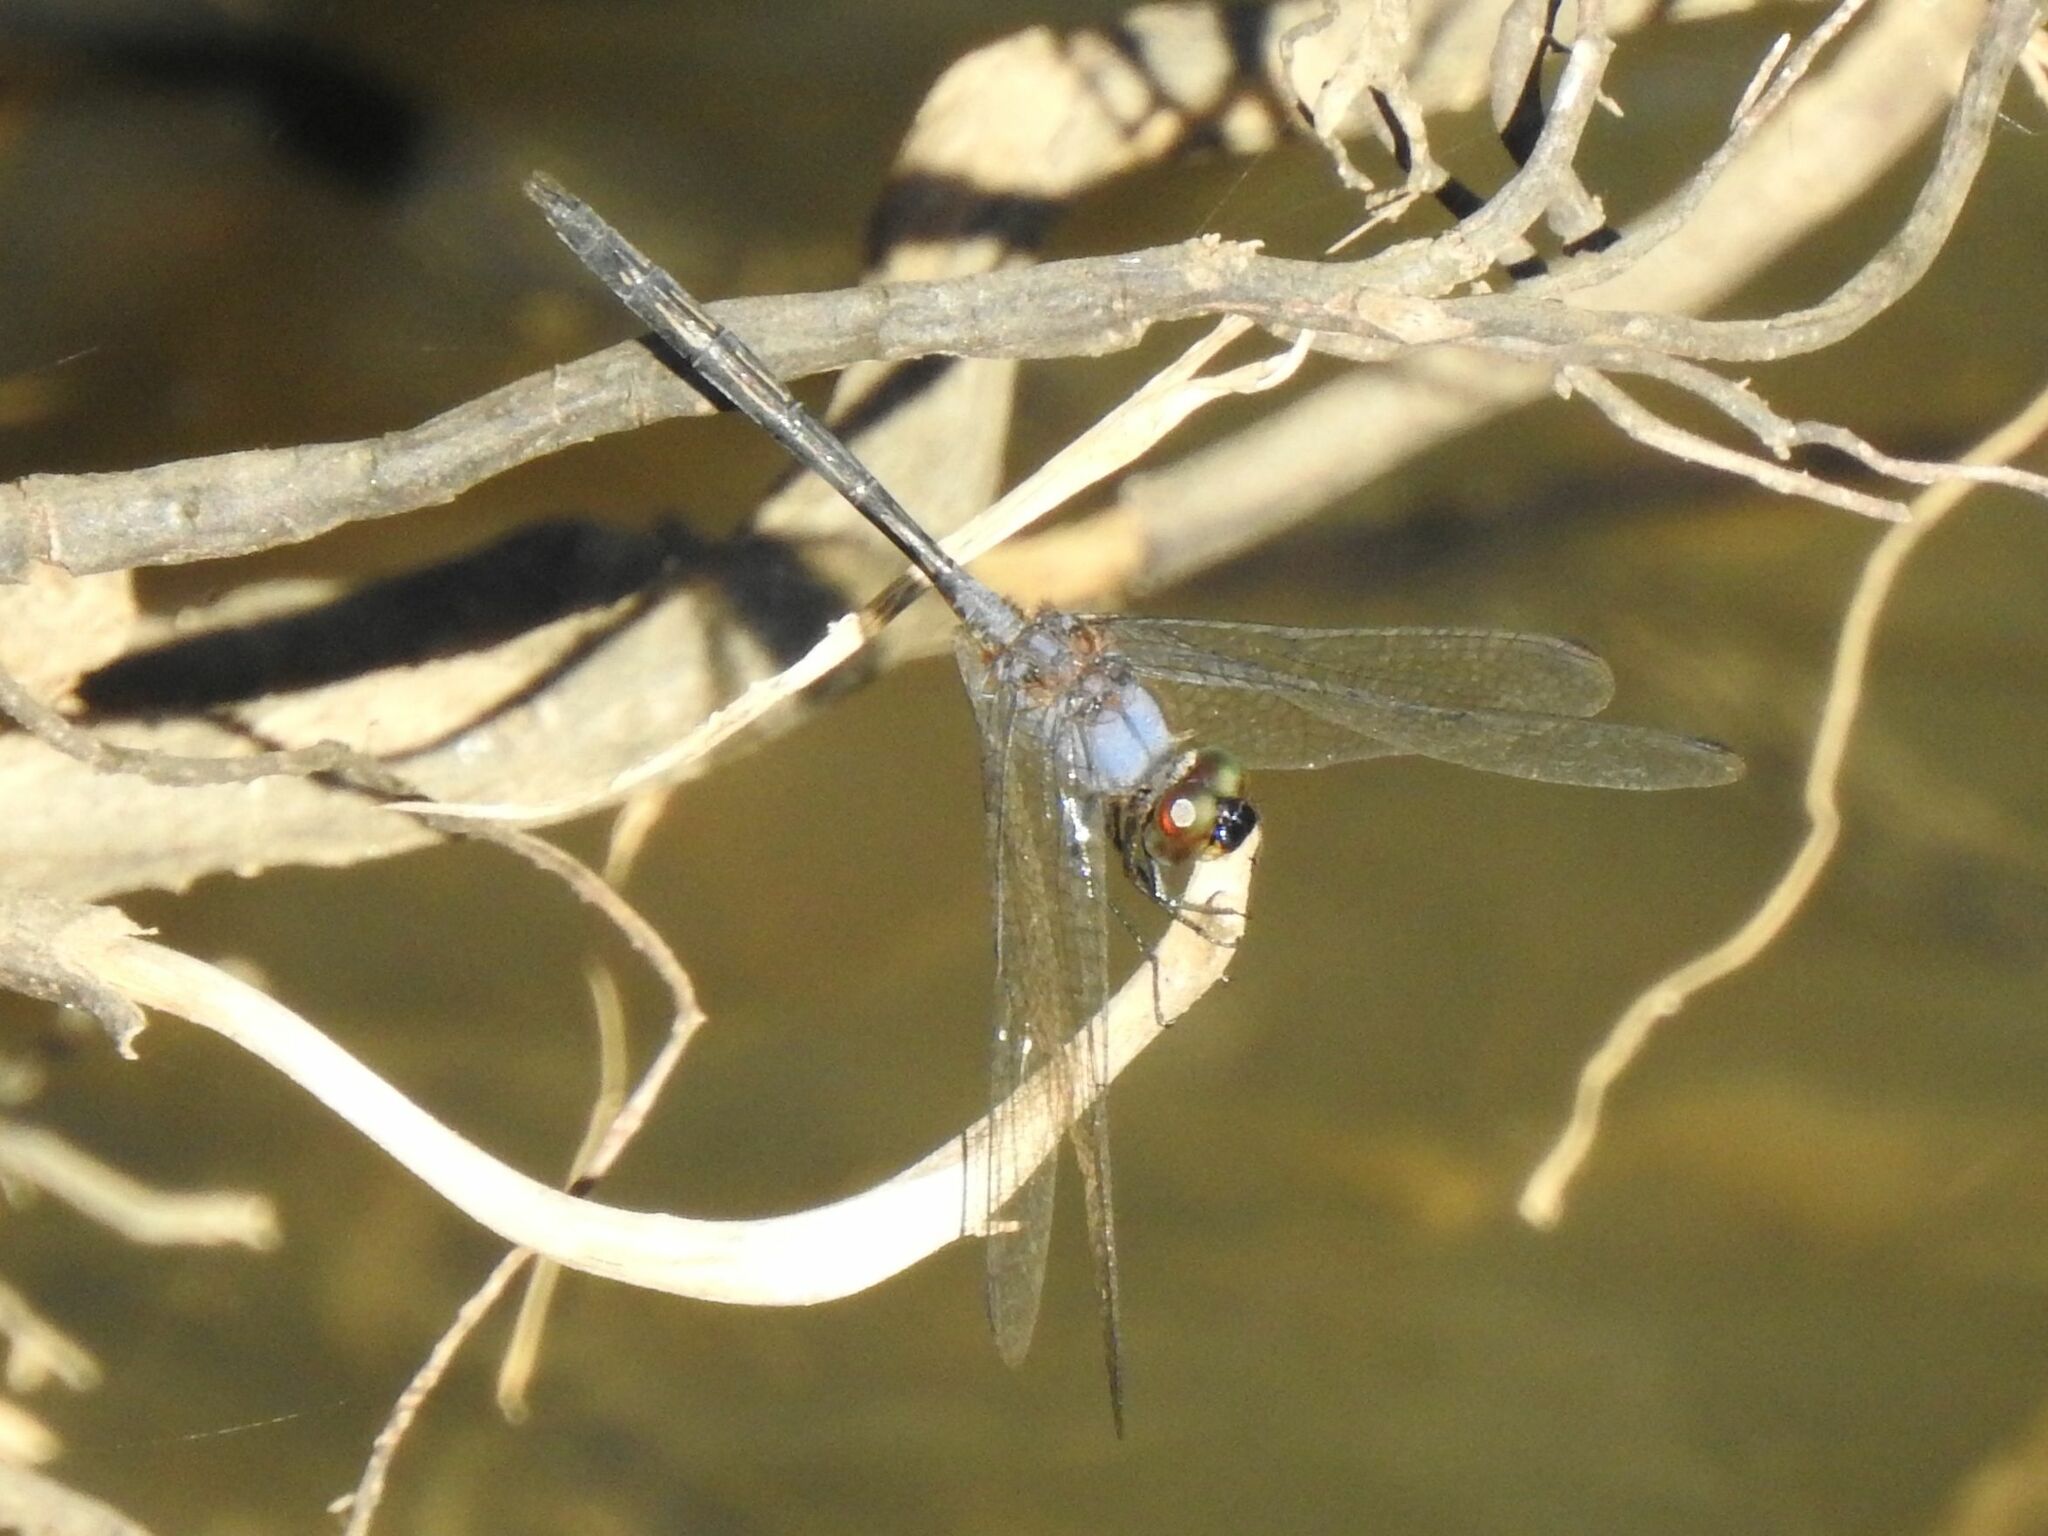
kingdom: Animalia
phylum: Arthropoda
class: Insecta
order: Odonata
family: Libellulidae
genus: Trithemis
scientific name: Trithemis aconita
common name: Halfshade dropwing
